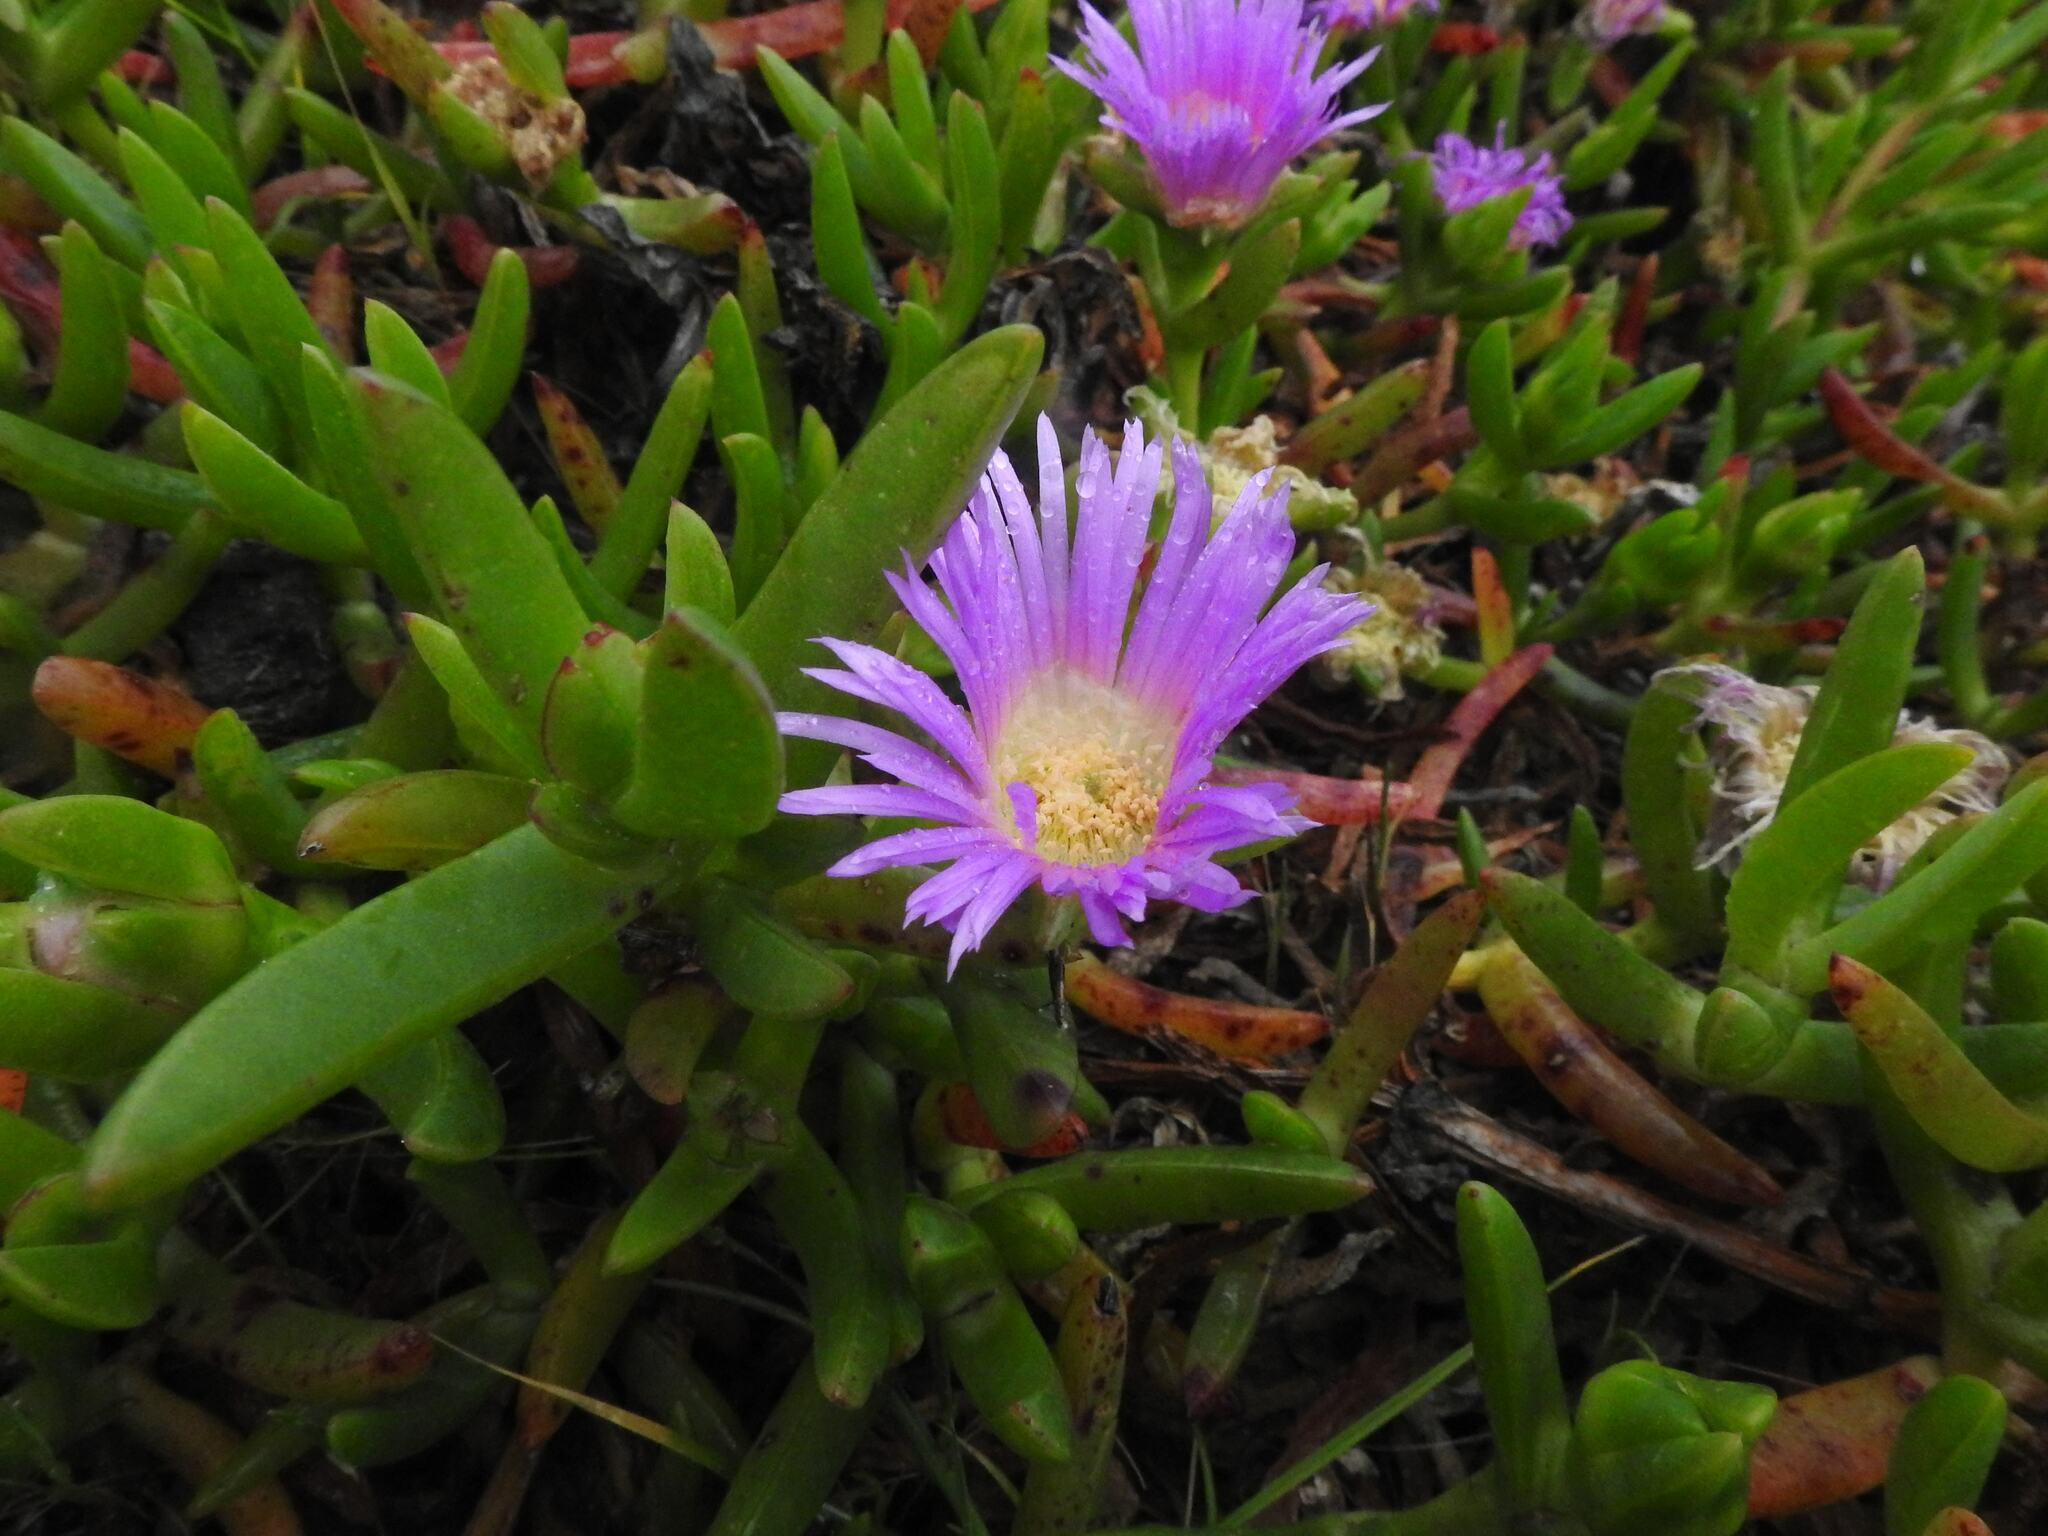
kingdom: Plantae
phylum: Tracheophyta
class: Magnoliopsida
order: Caryophyllales
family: Aizoaceae
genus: Carpobrotus
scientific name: Carpobrotus rossii
